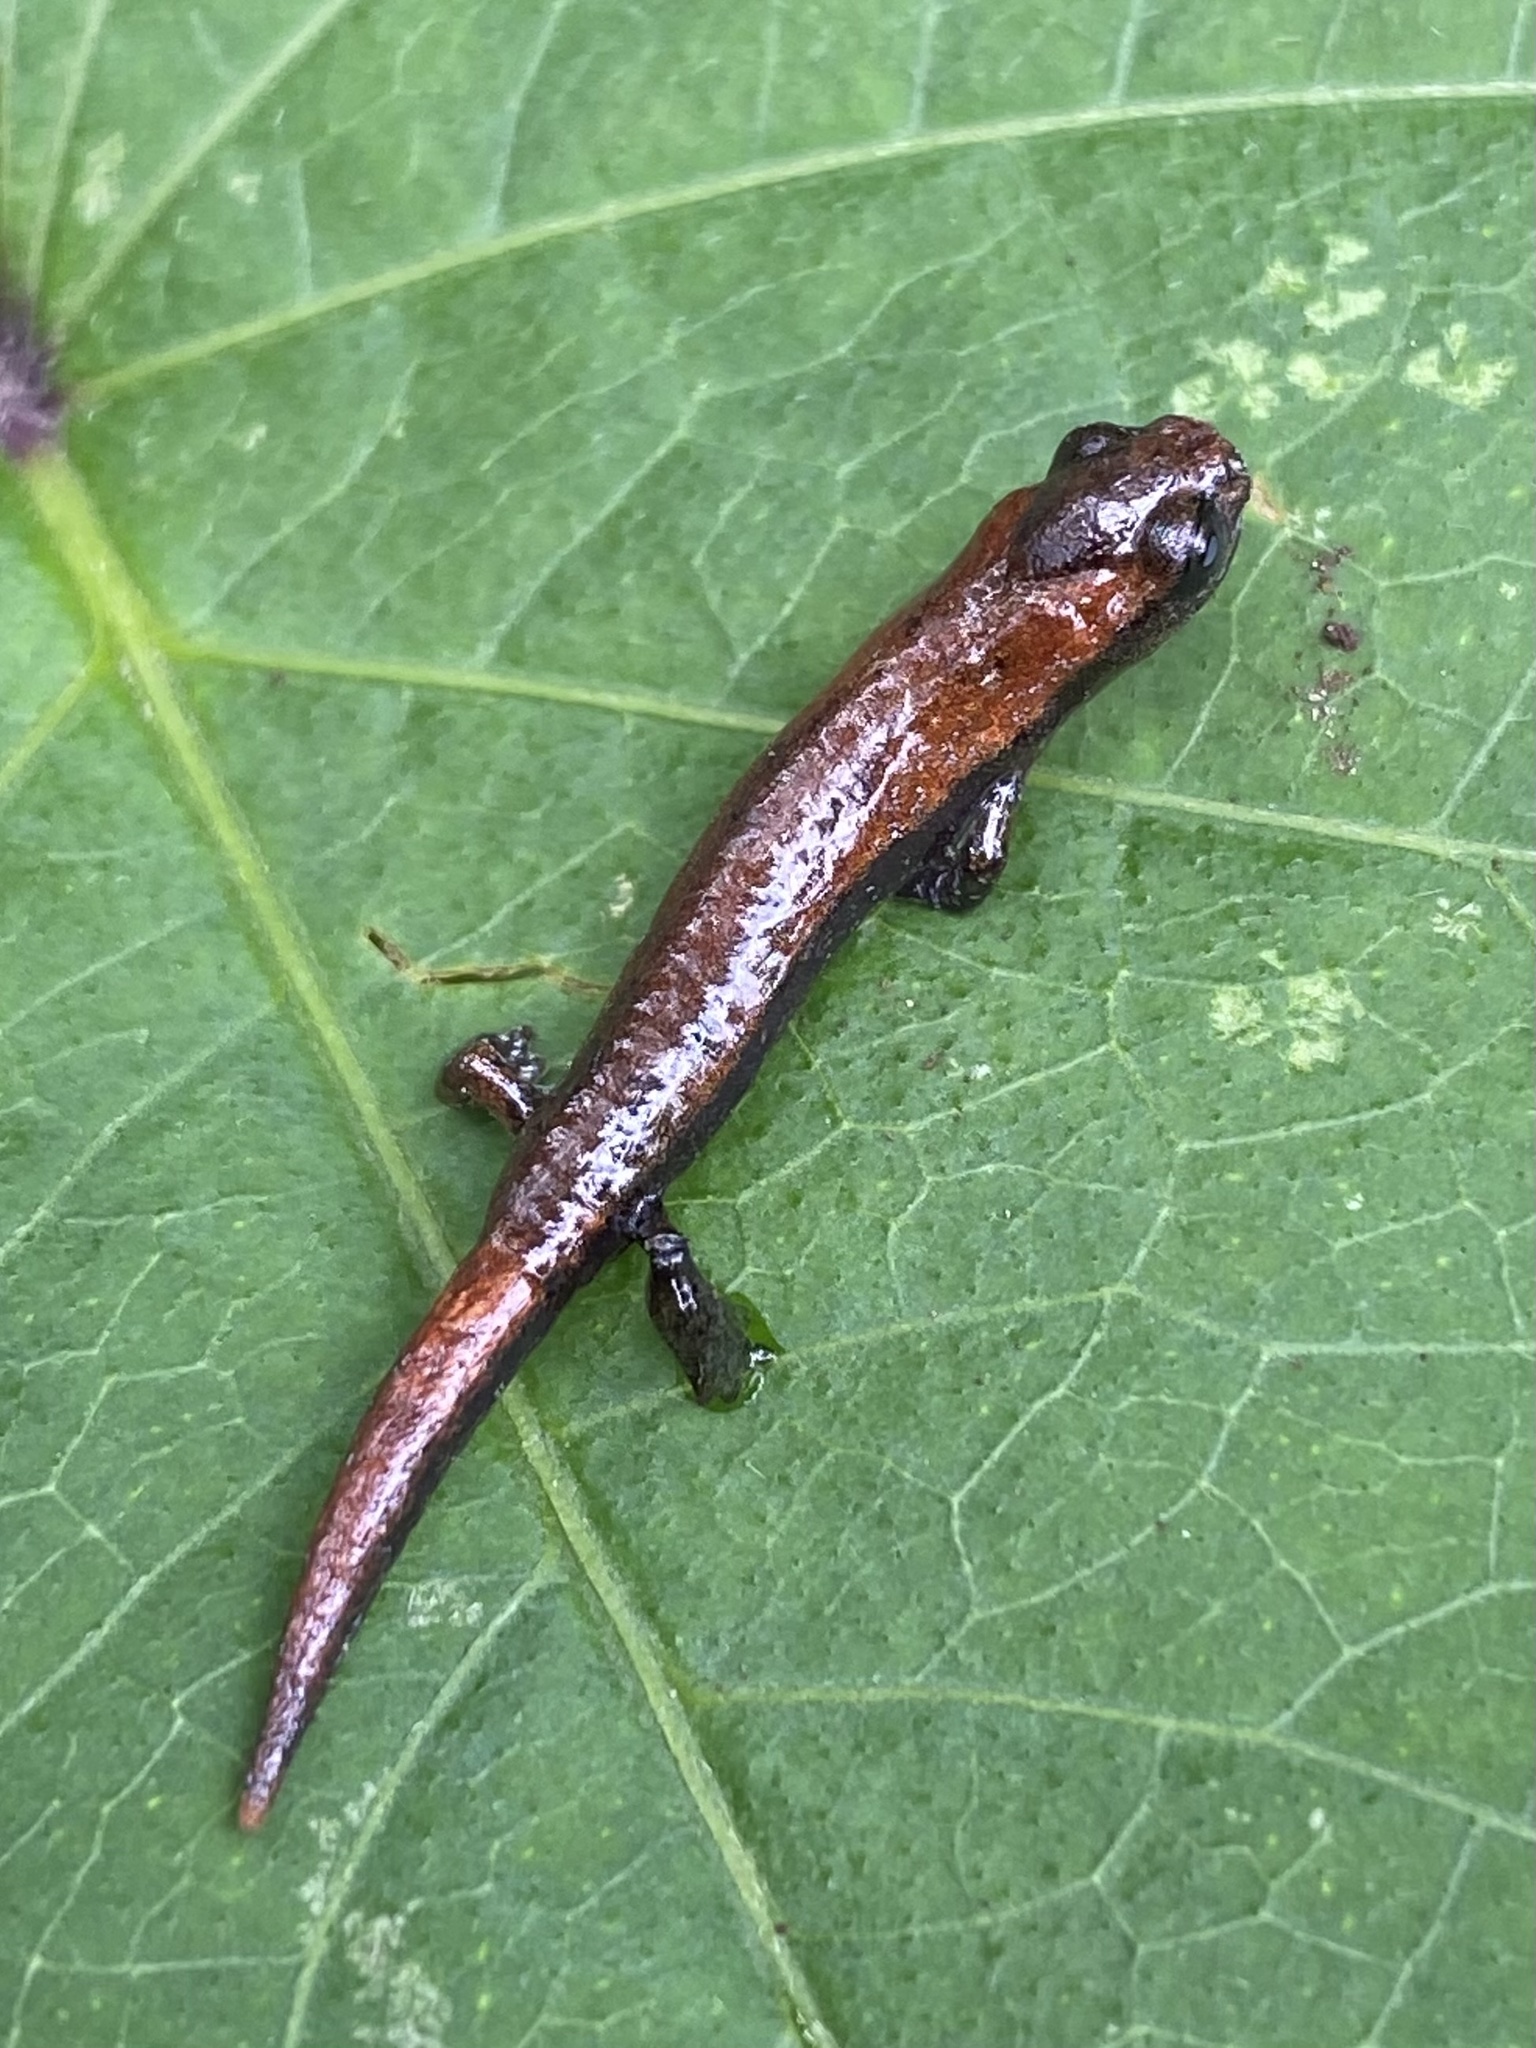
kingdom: Animalia
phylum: Chordata
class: Amphibia
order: Caudata
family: Plethodontidae
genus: Bolitoglossa
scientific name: Bolitoglossa pacaya
